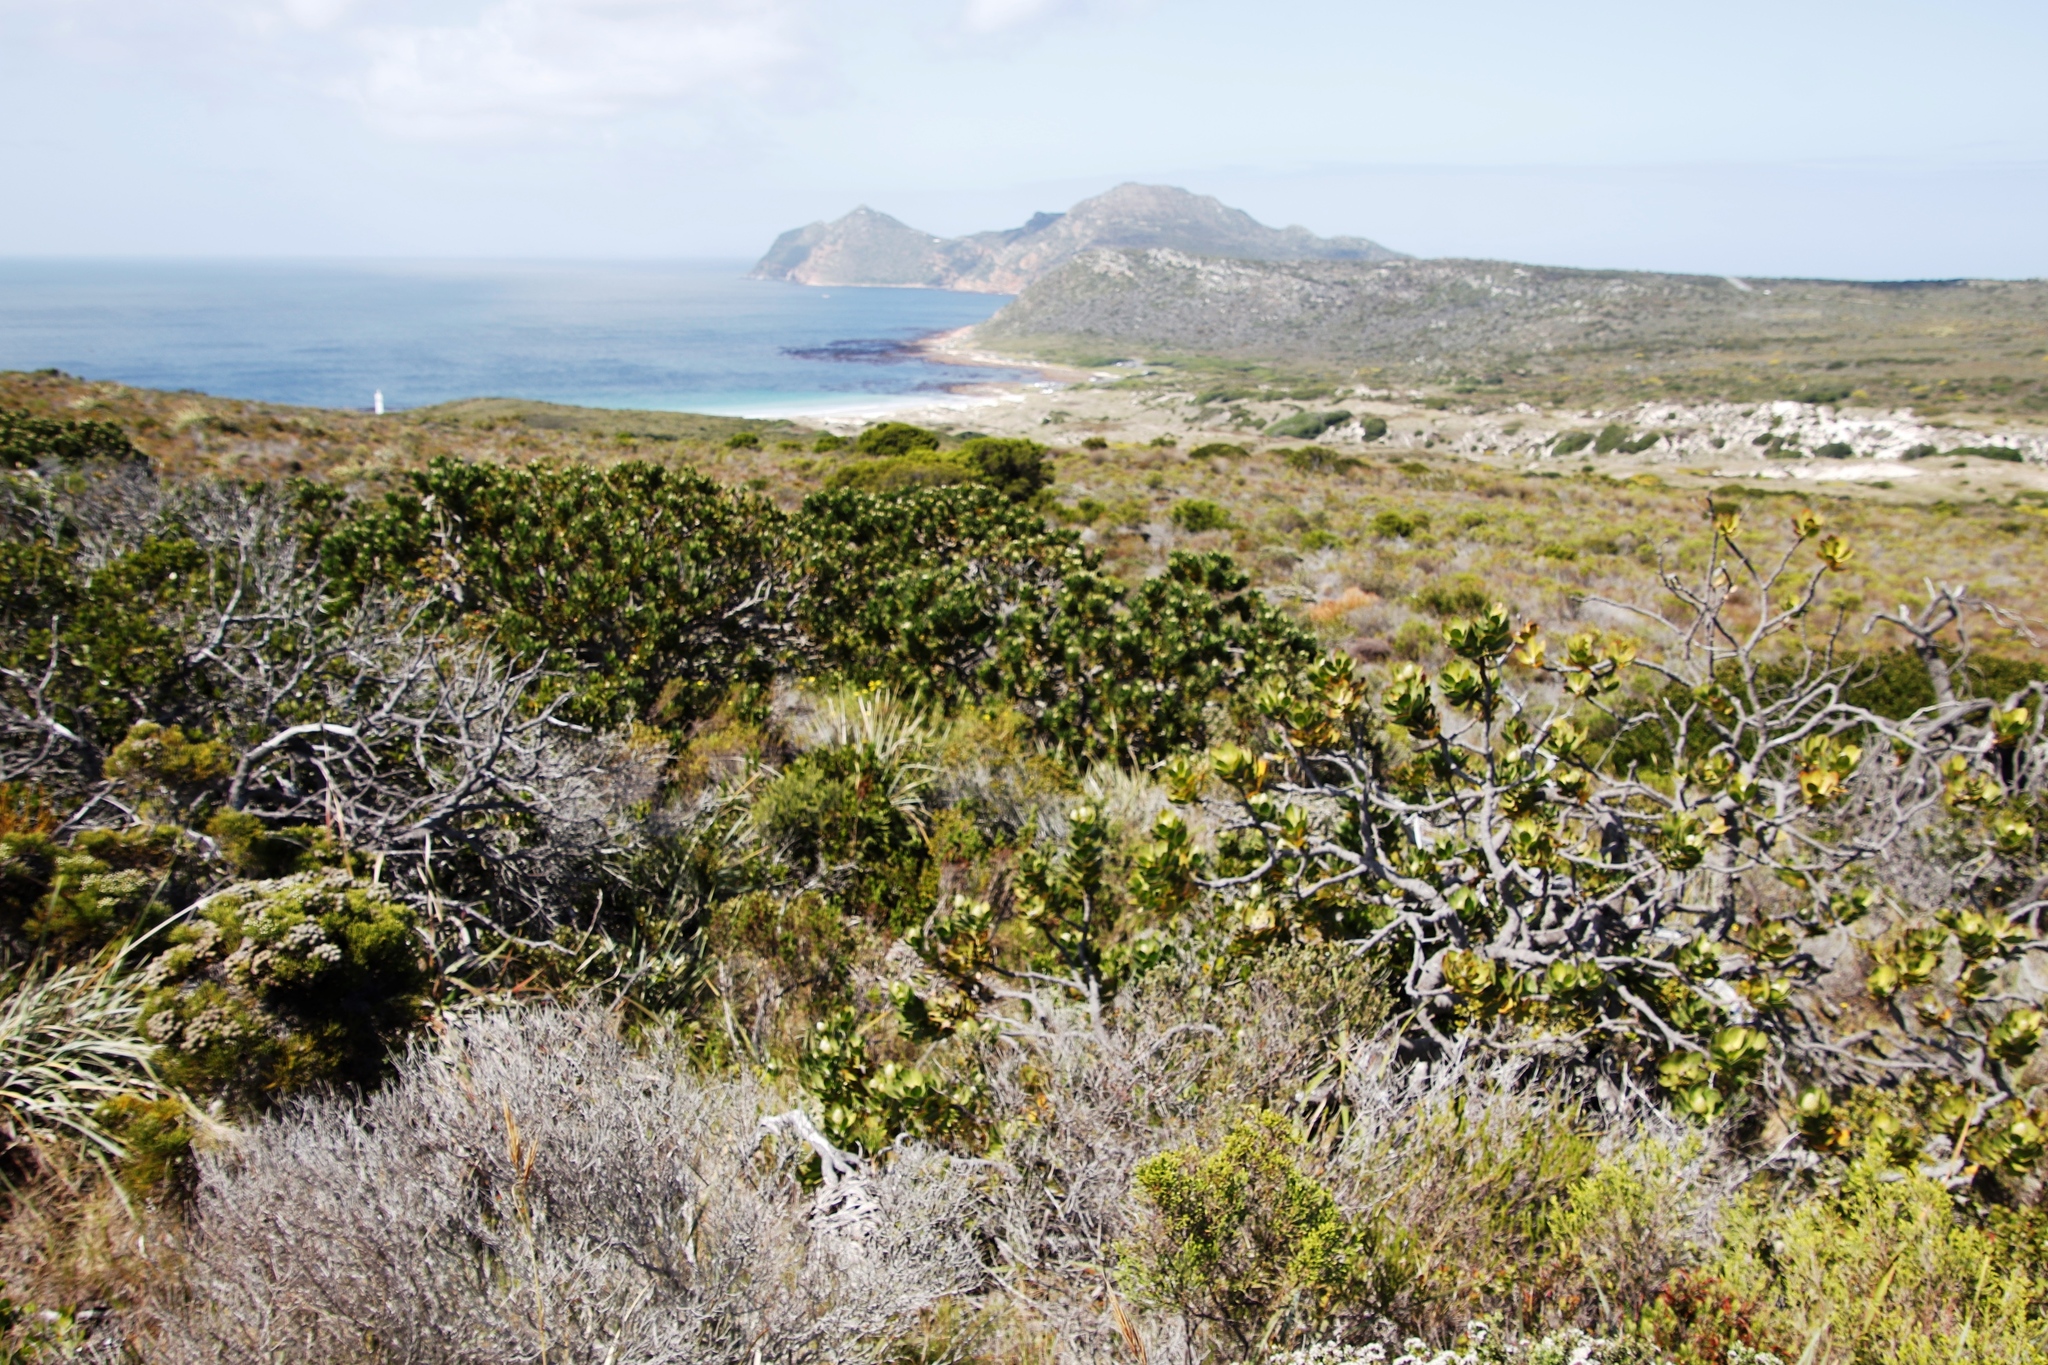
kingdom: Plantae
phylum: Tracheophyta
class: Magnoliopsida
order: Proteales
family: Proteaceae
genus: Leucospermum
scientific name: Leucospermum conocarpodendron
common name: Tree pincushion
